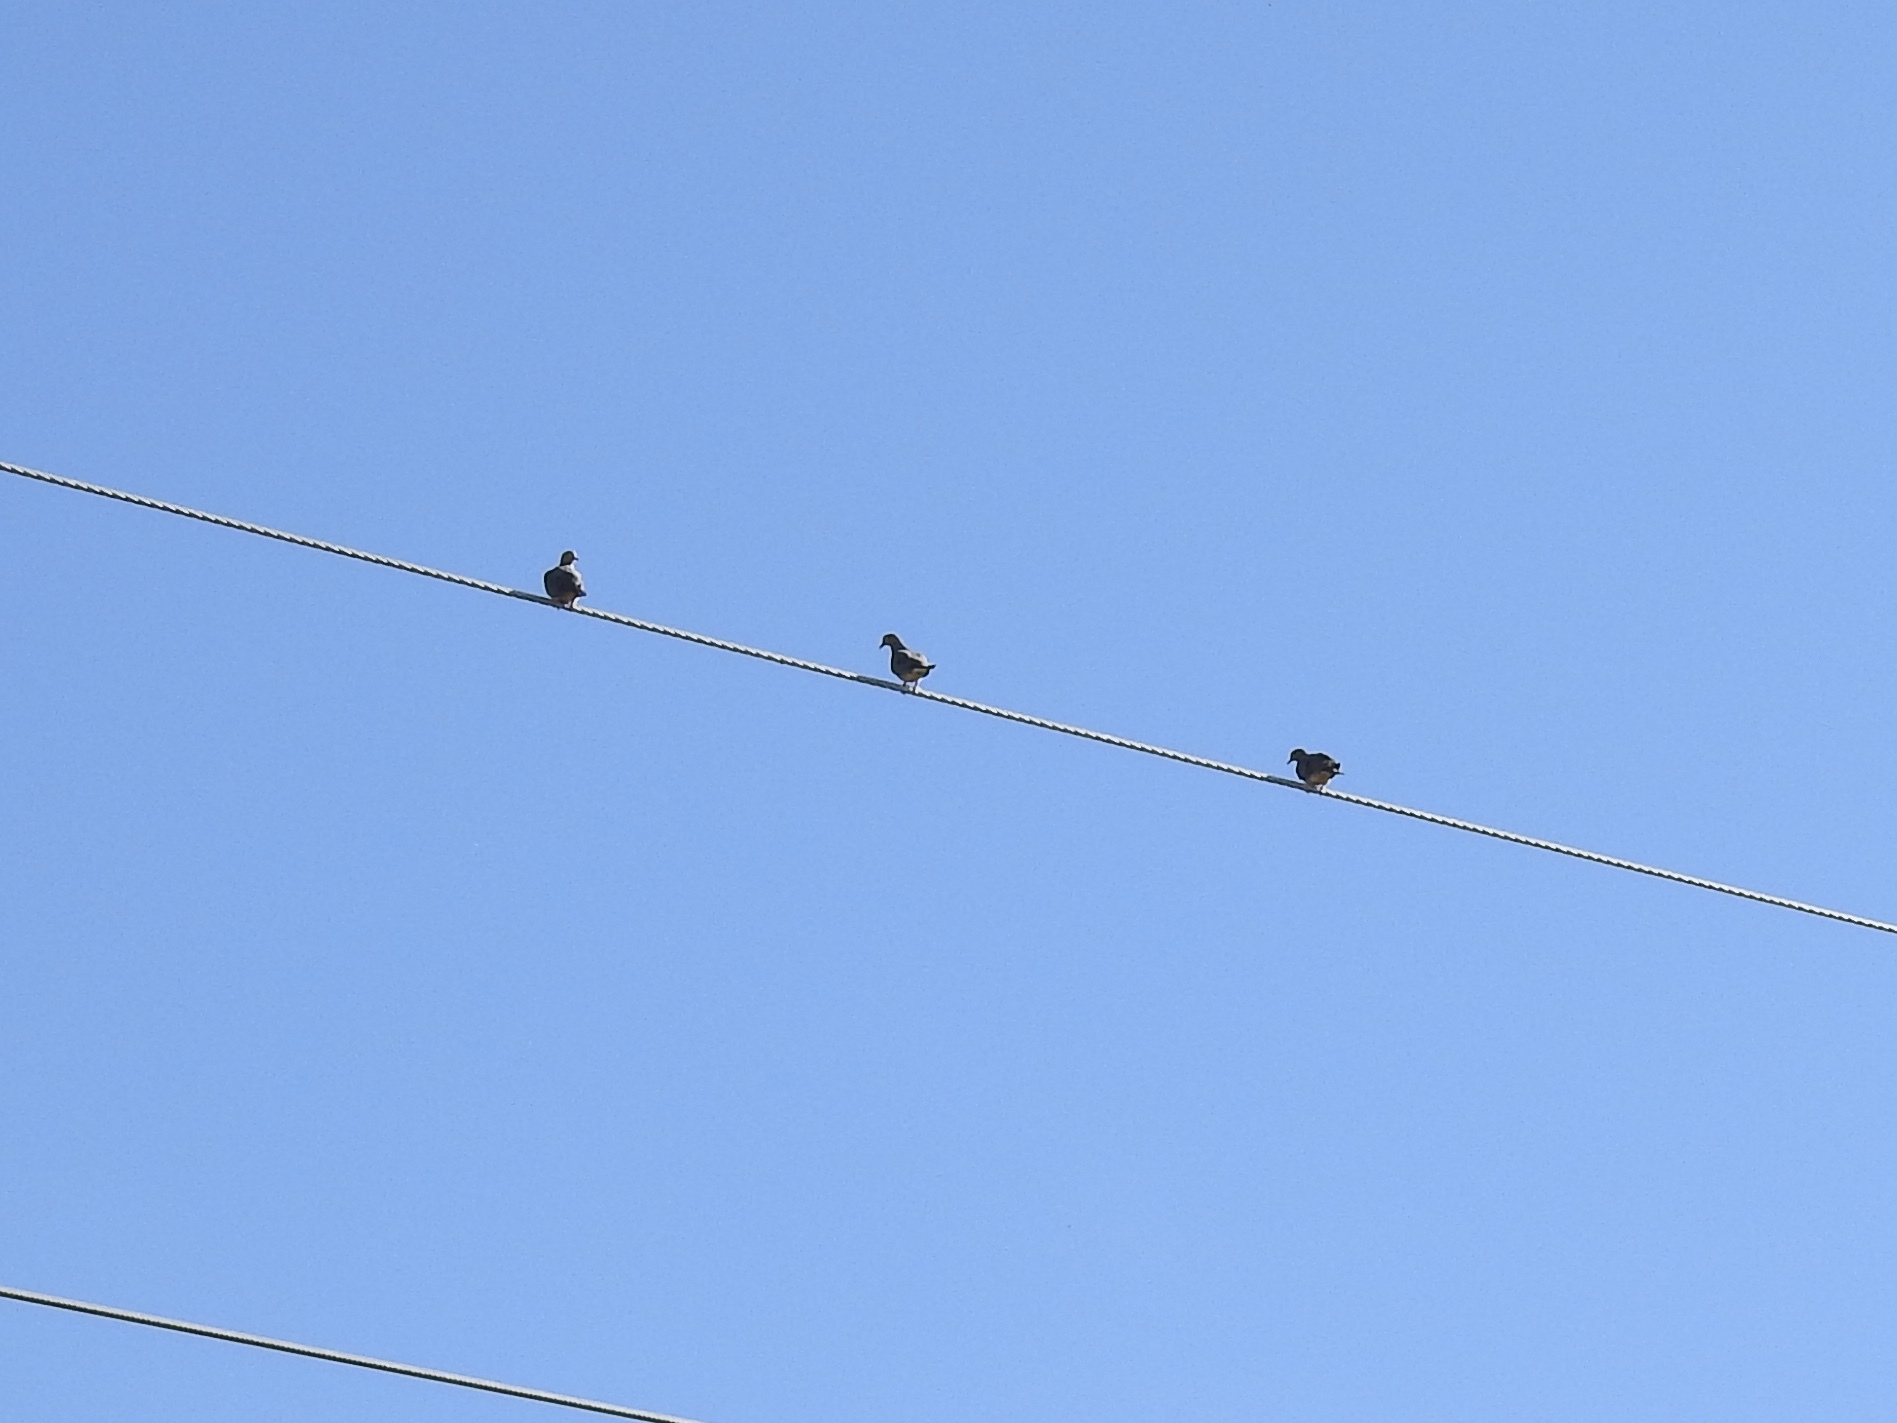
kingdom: Animalia
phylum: Chordata
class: Aves
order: Columbiformes
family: Columbidae
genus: Zenaida
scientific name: Zenaida macroura
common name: Mourning dove
